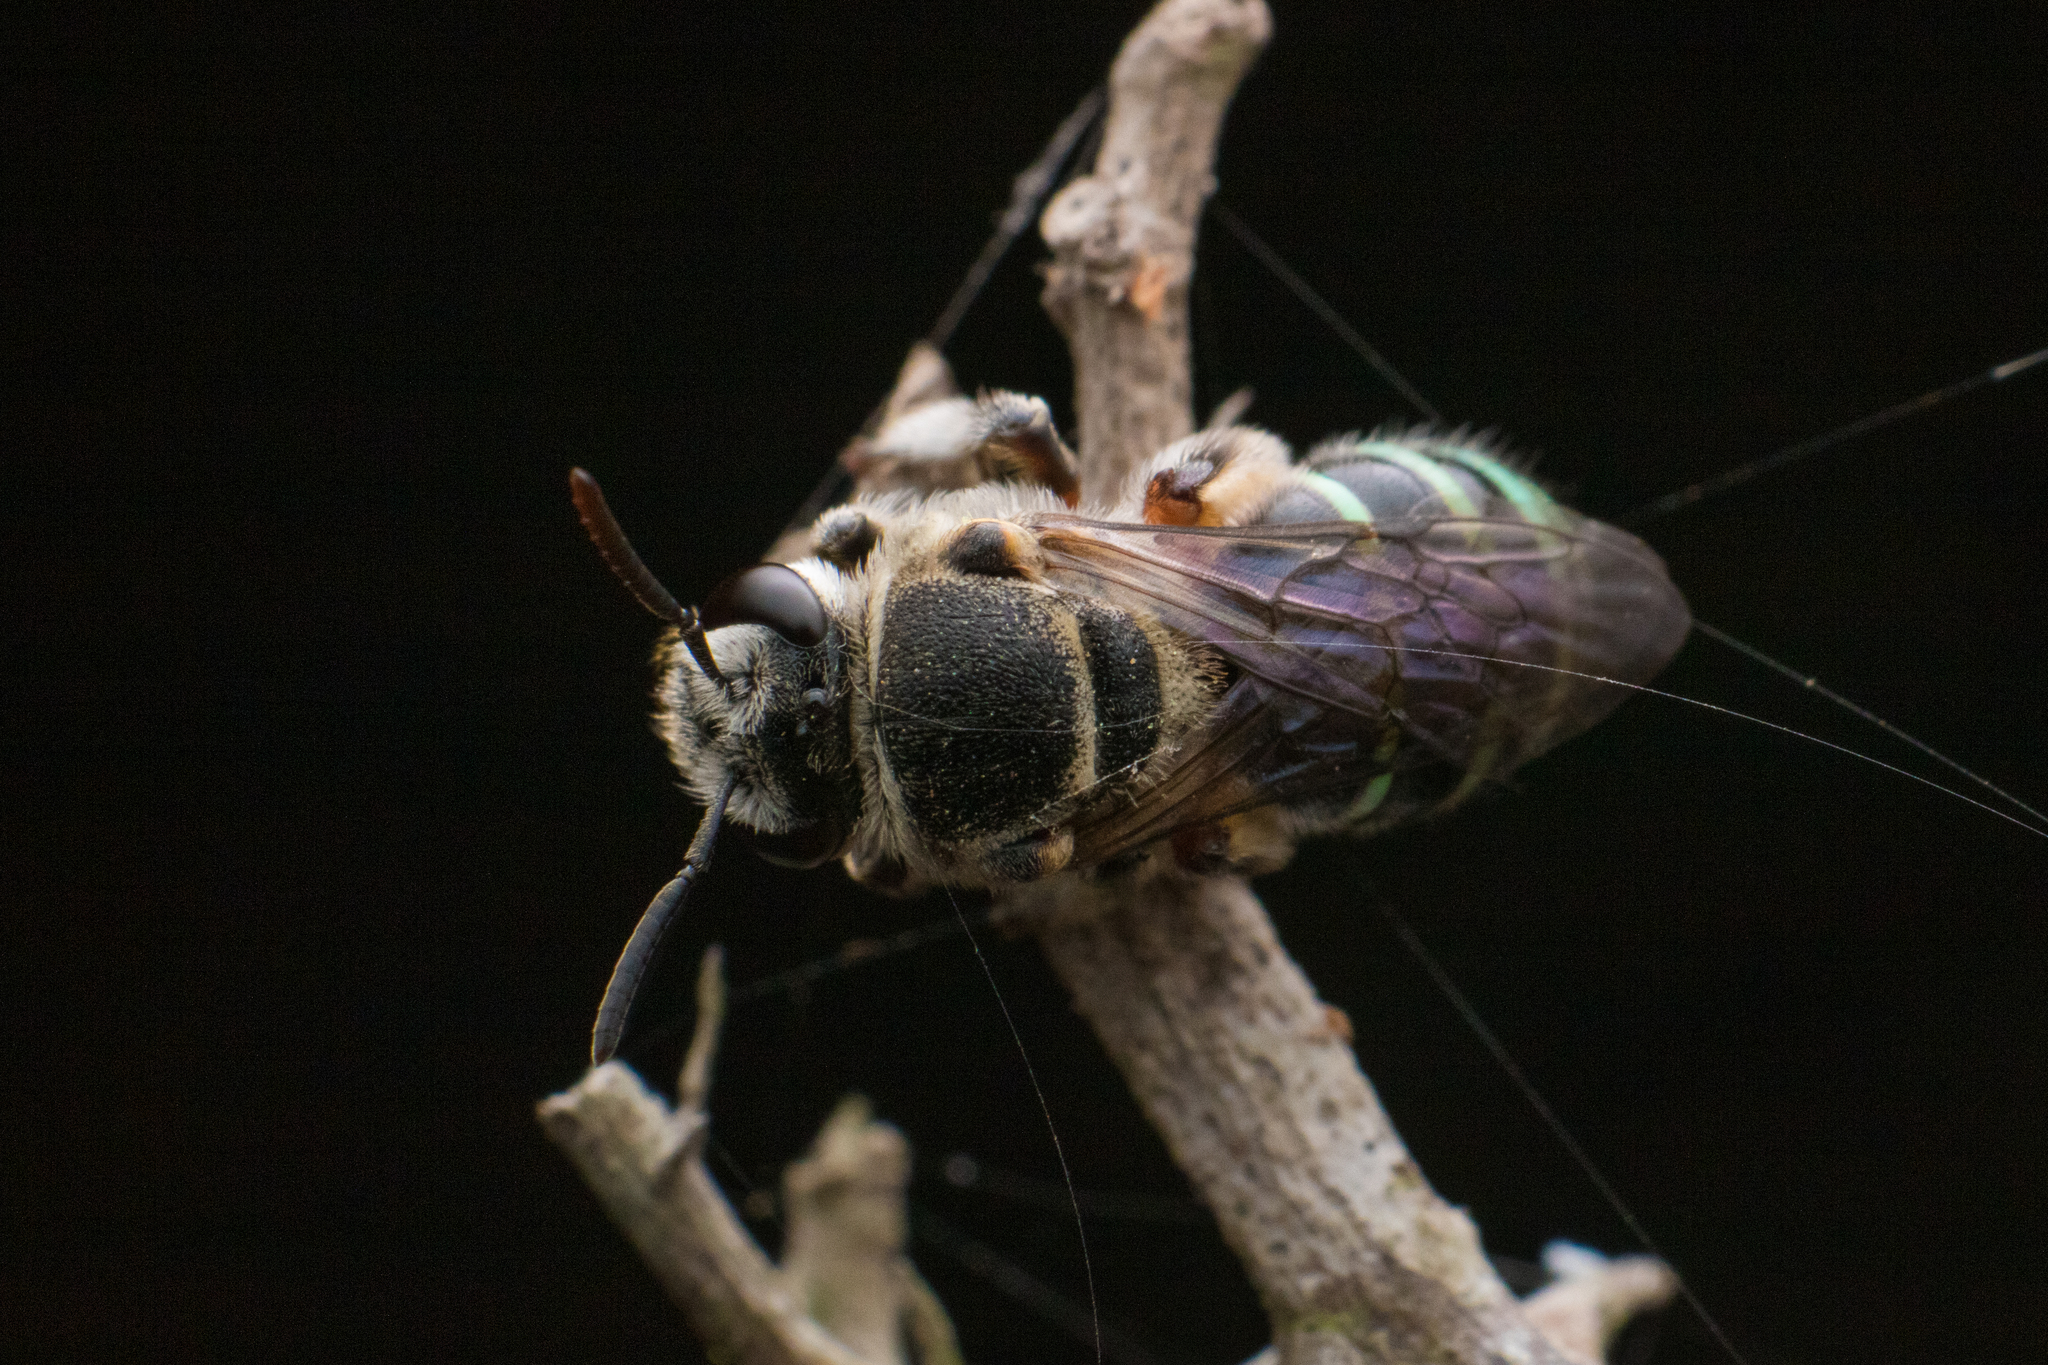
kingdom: Animalia
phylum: Arthropoda
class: Insecta
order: Hymenoptera
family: Halictidae
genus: Nomia
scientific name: Nomia westwoodi
